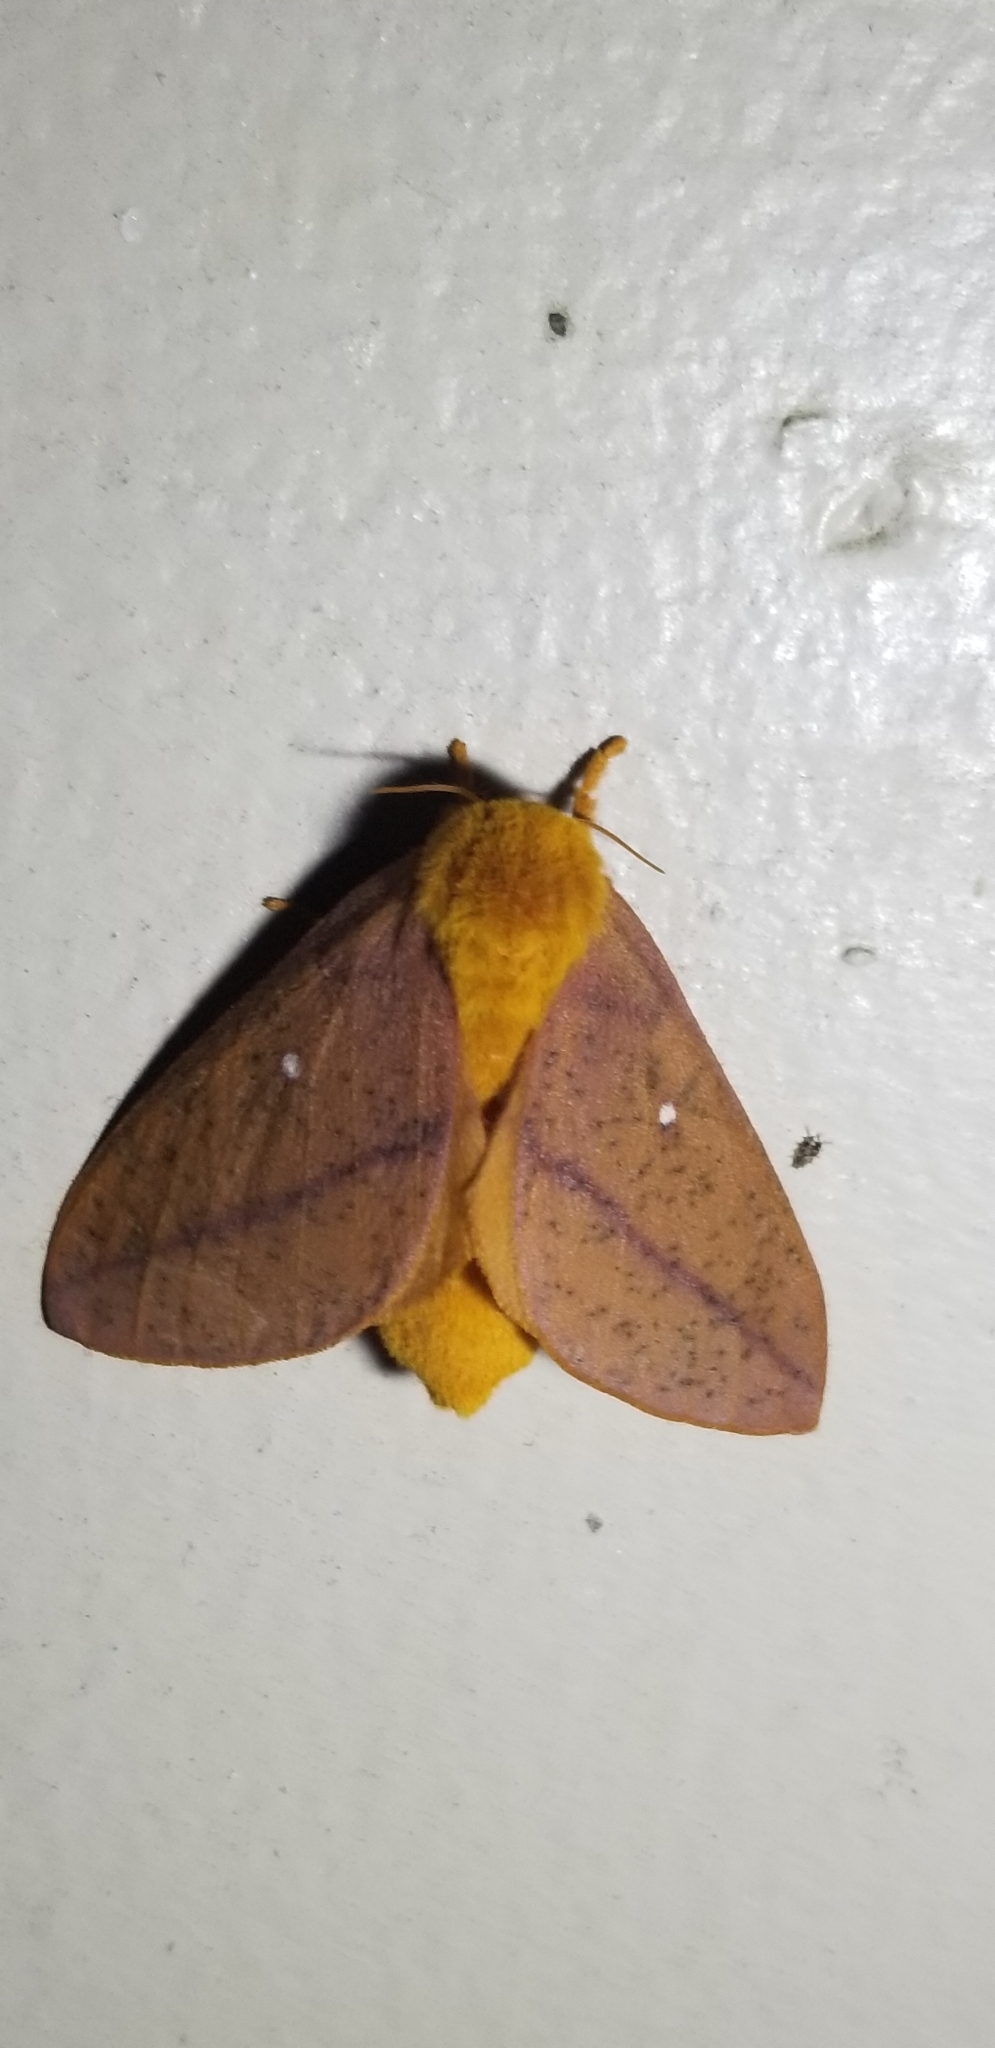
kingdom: Animalia
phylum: Arthropoda
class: Insecta
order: Lepidoptera
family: Saturniidae
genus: Anisota
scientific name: Anisota stigma
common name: Spiny oakworm moth
